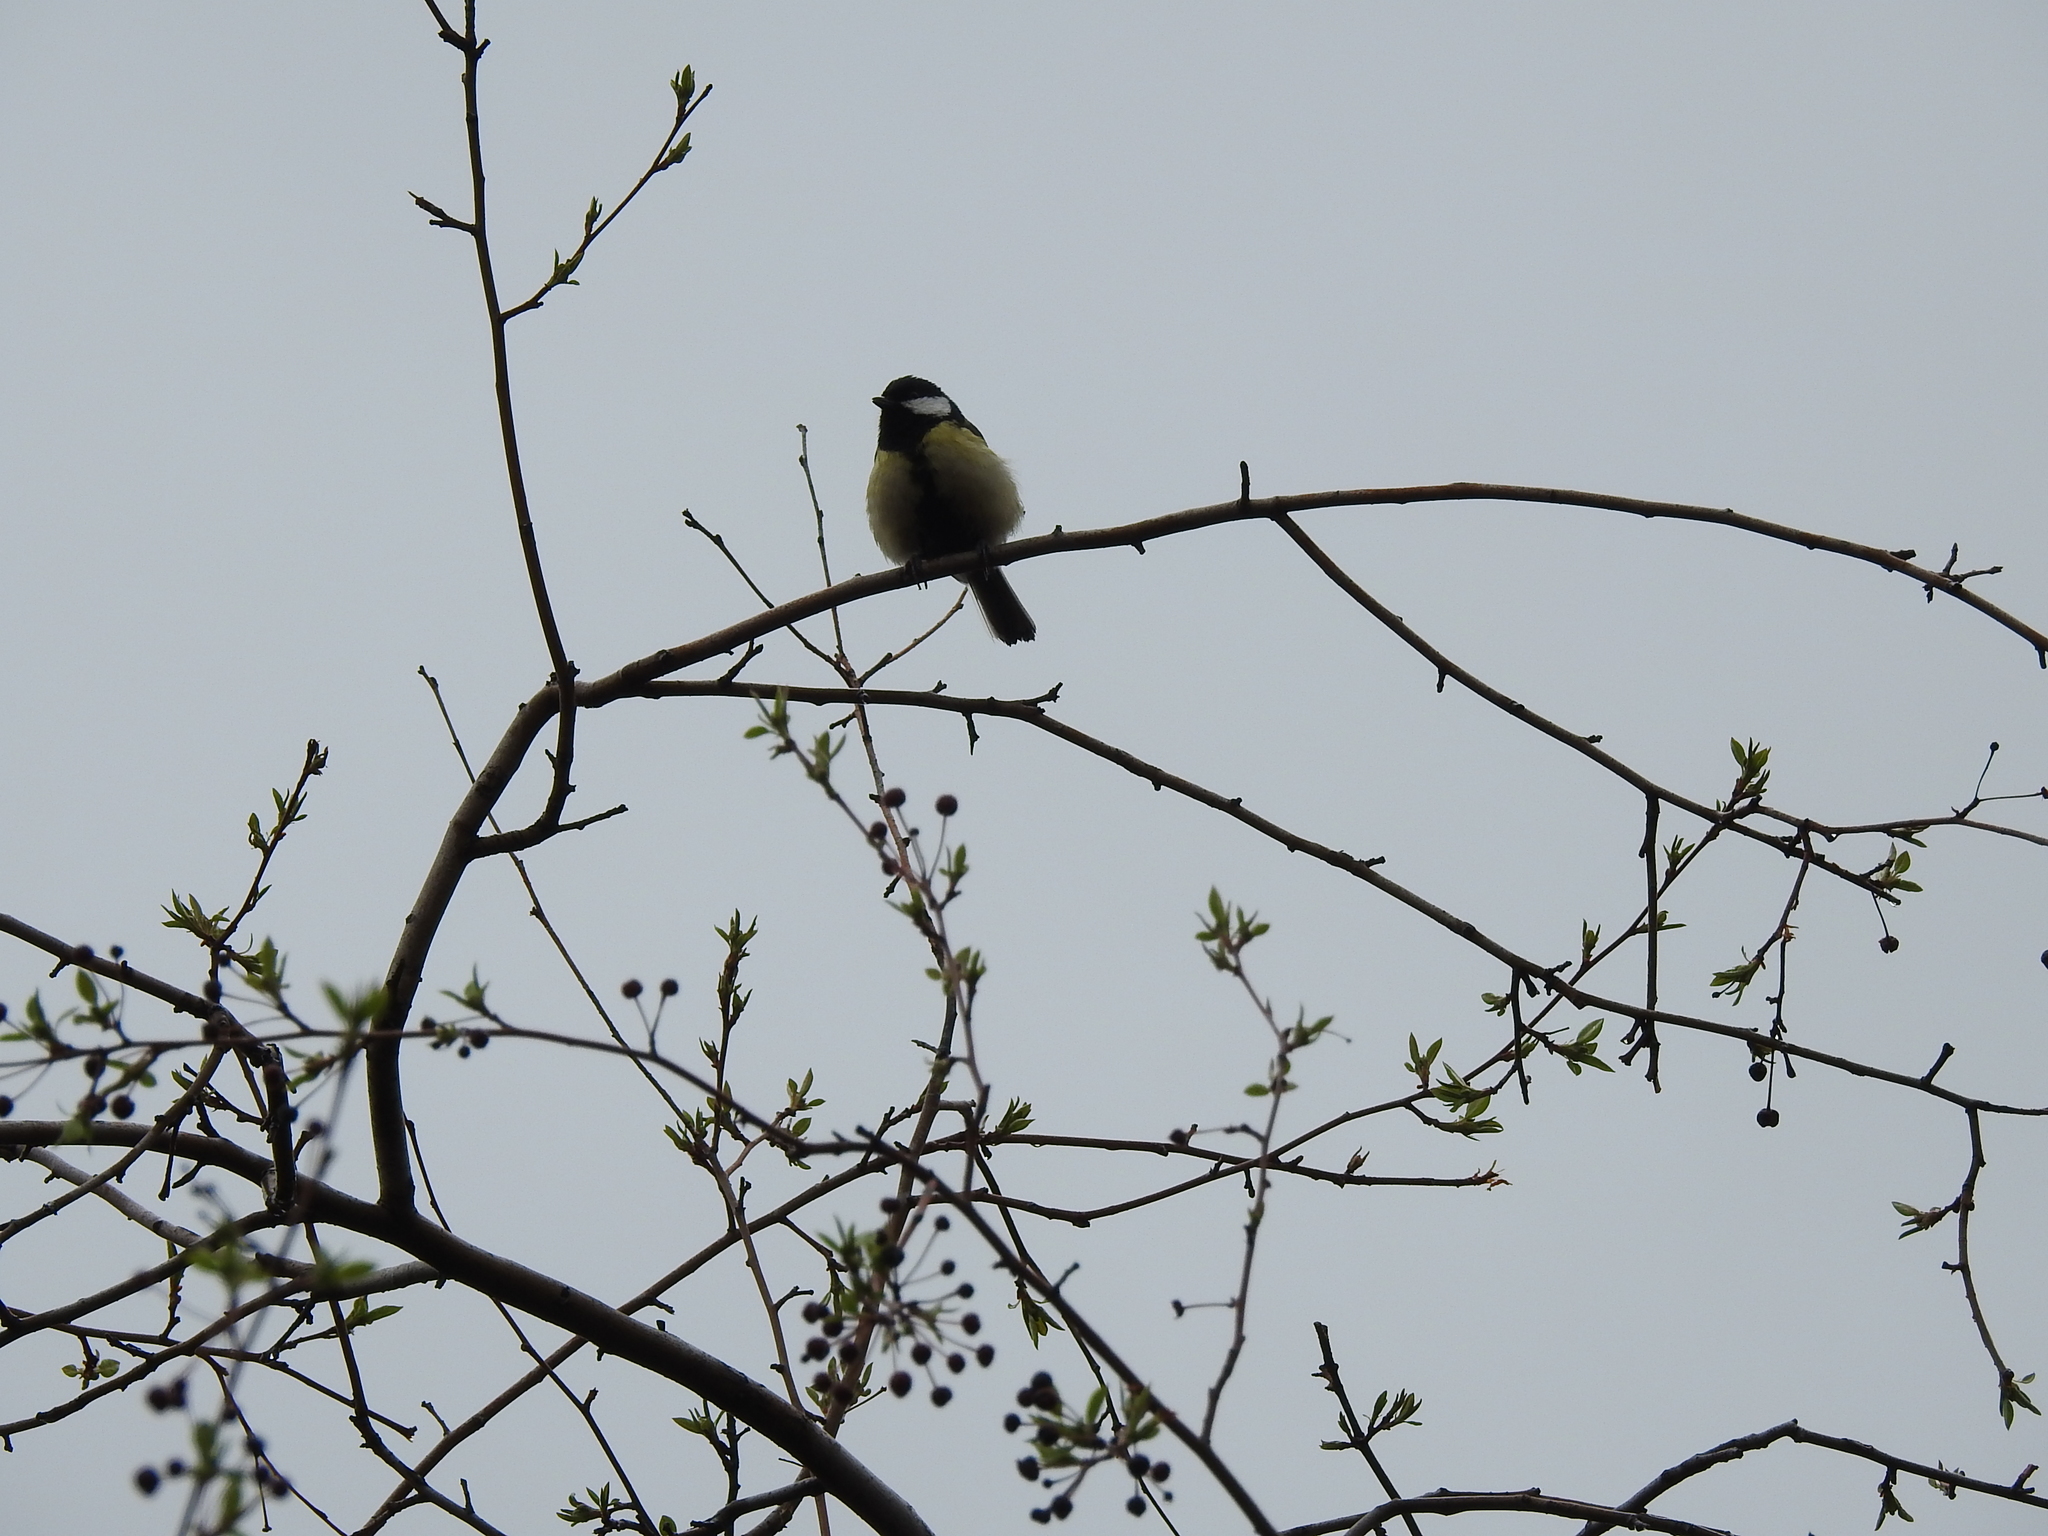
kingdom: Animalia
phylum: Chordata
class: Aves
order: Passeriformes
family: Paridae
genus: Parus
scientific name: Parus major
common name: Great tit
